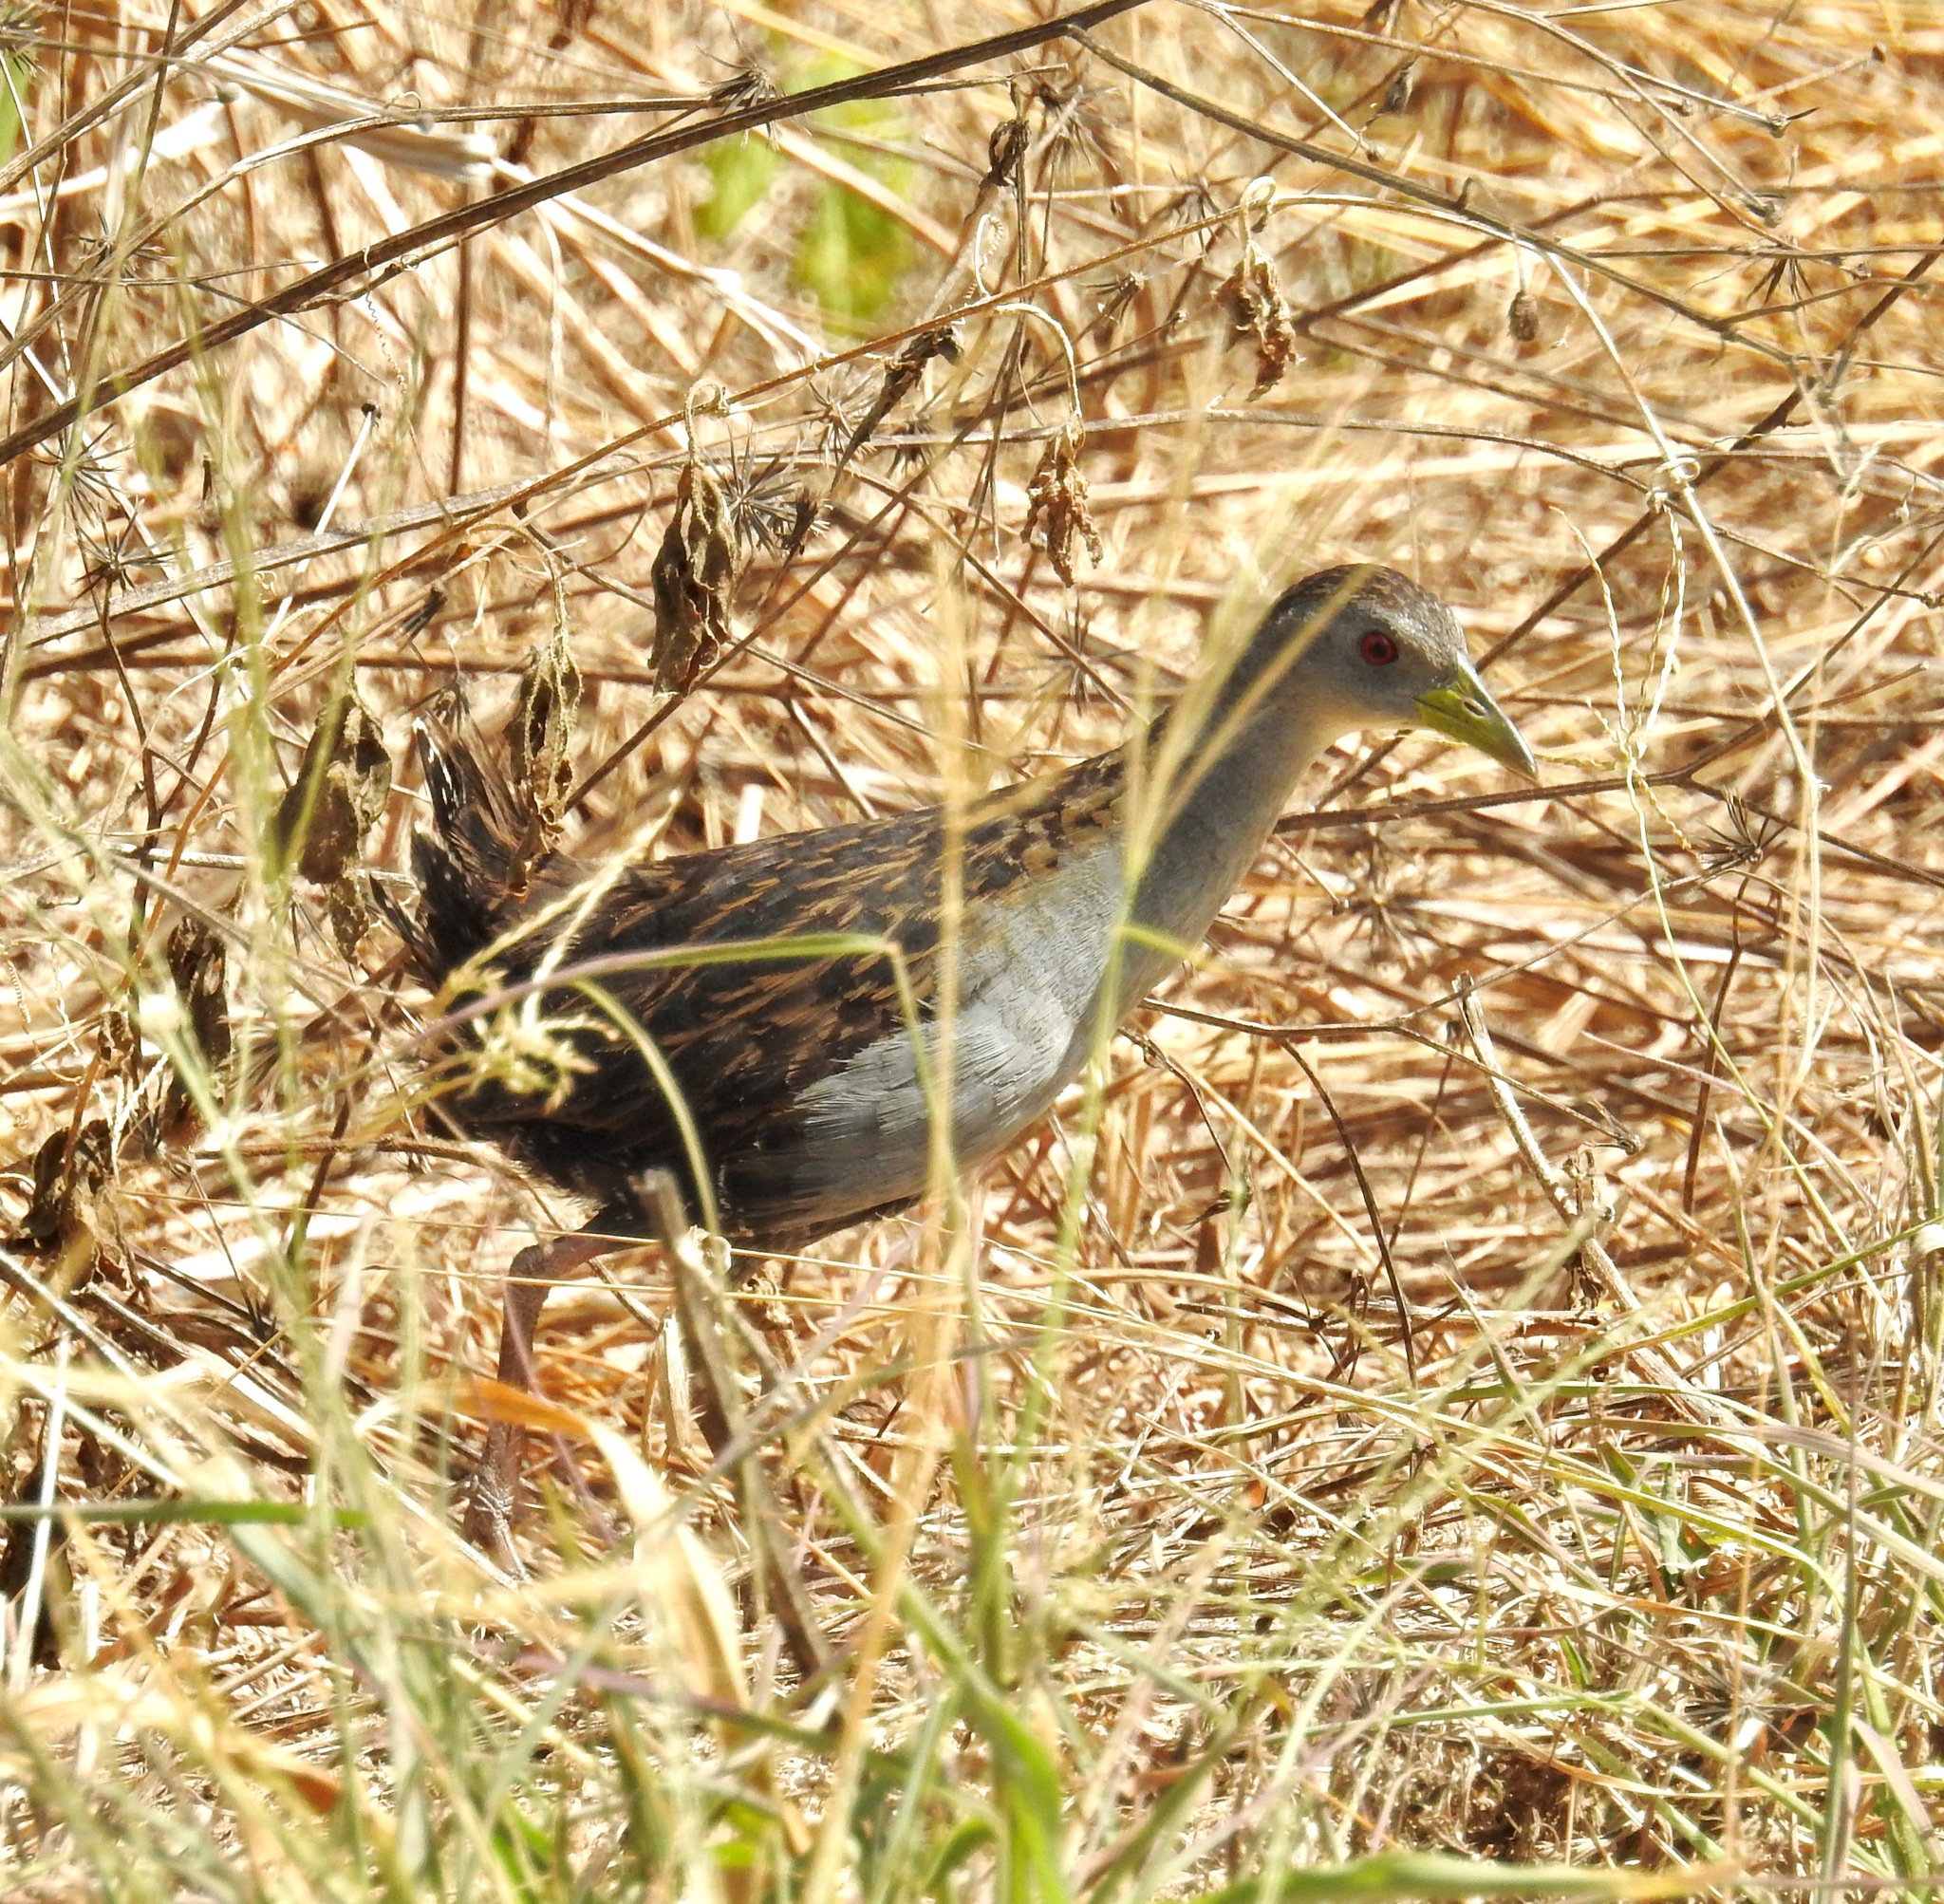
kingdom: Animalia
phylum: Chordata
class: Aves
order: Gruiformes
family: Rallidae
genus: Porzana
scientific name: Porzana albicollis
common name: Ash-throated crake
